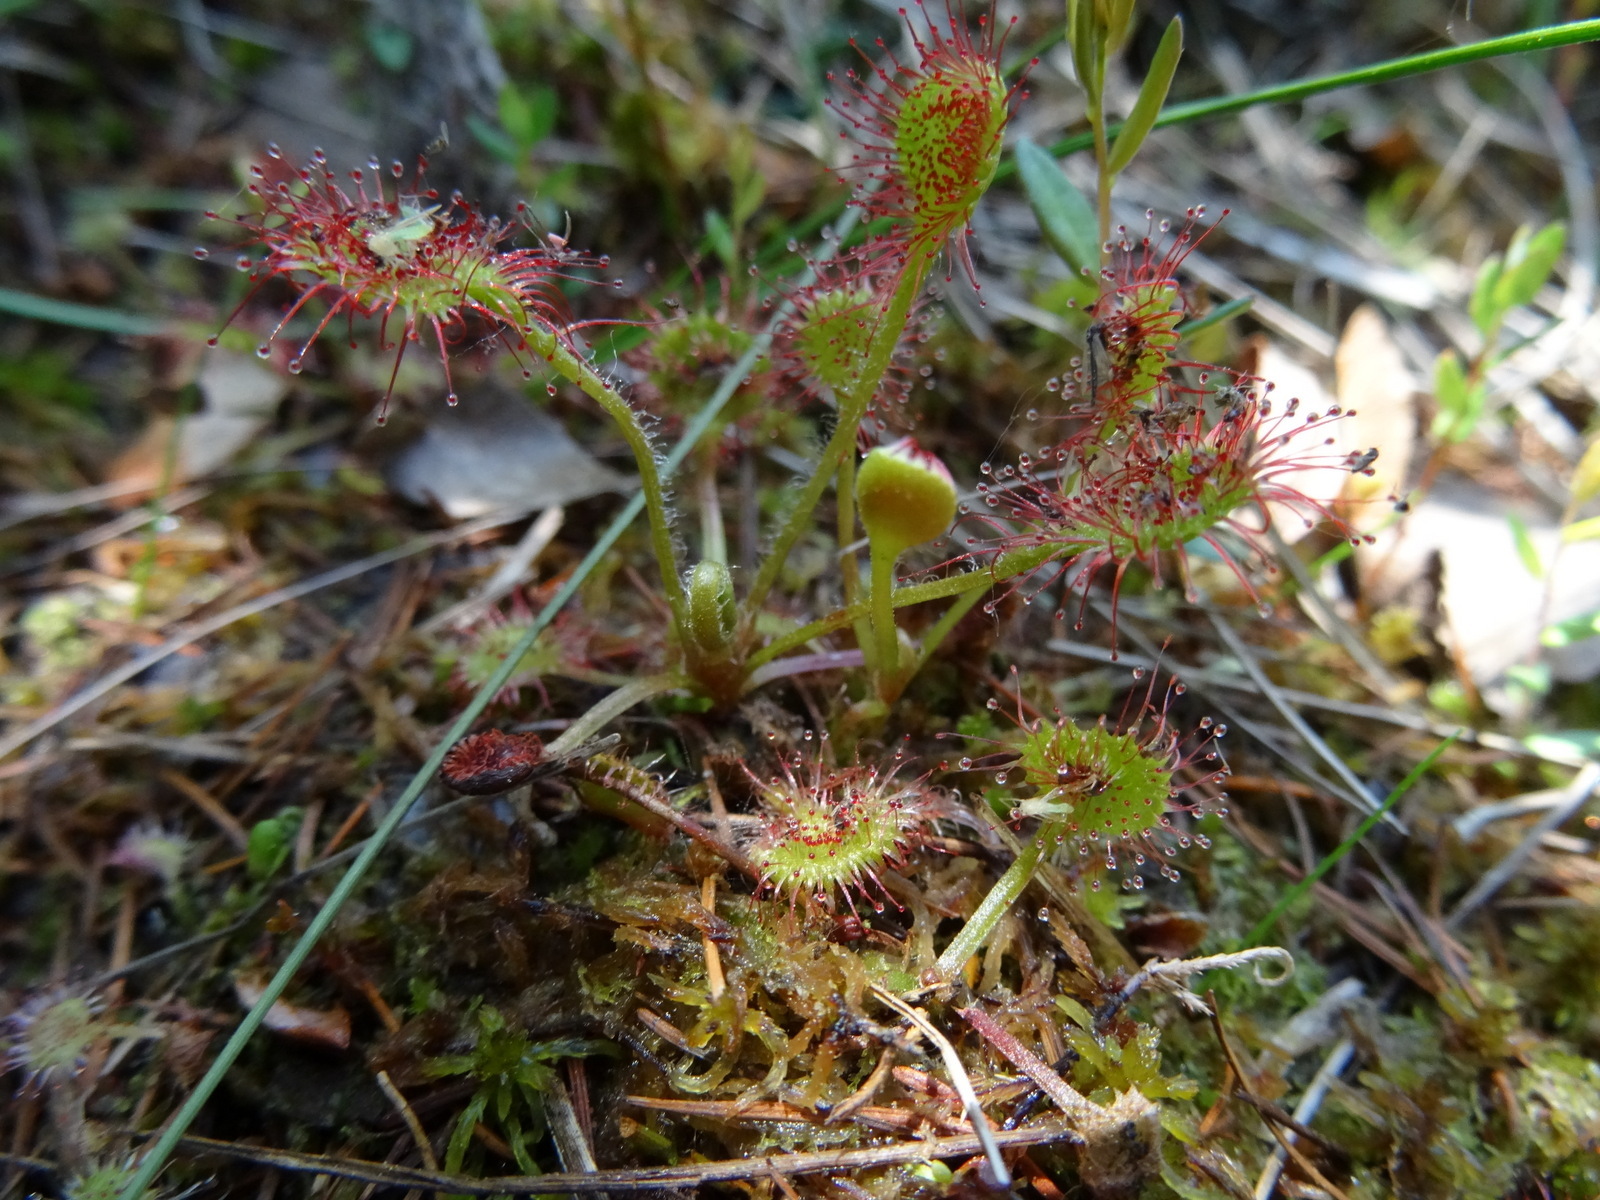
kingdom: Plantae
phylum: Tracheophyta
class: Magnoliopsida
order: Caryophyllales
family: Droseraceae
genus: Drosera
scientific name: Drosera rotundifolia
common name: Round-leaved sundew
